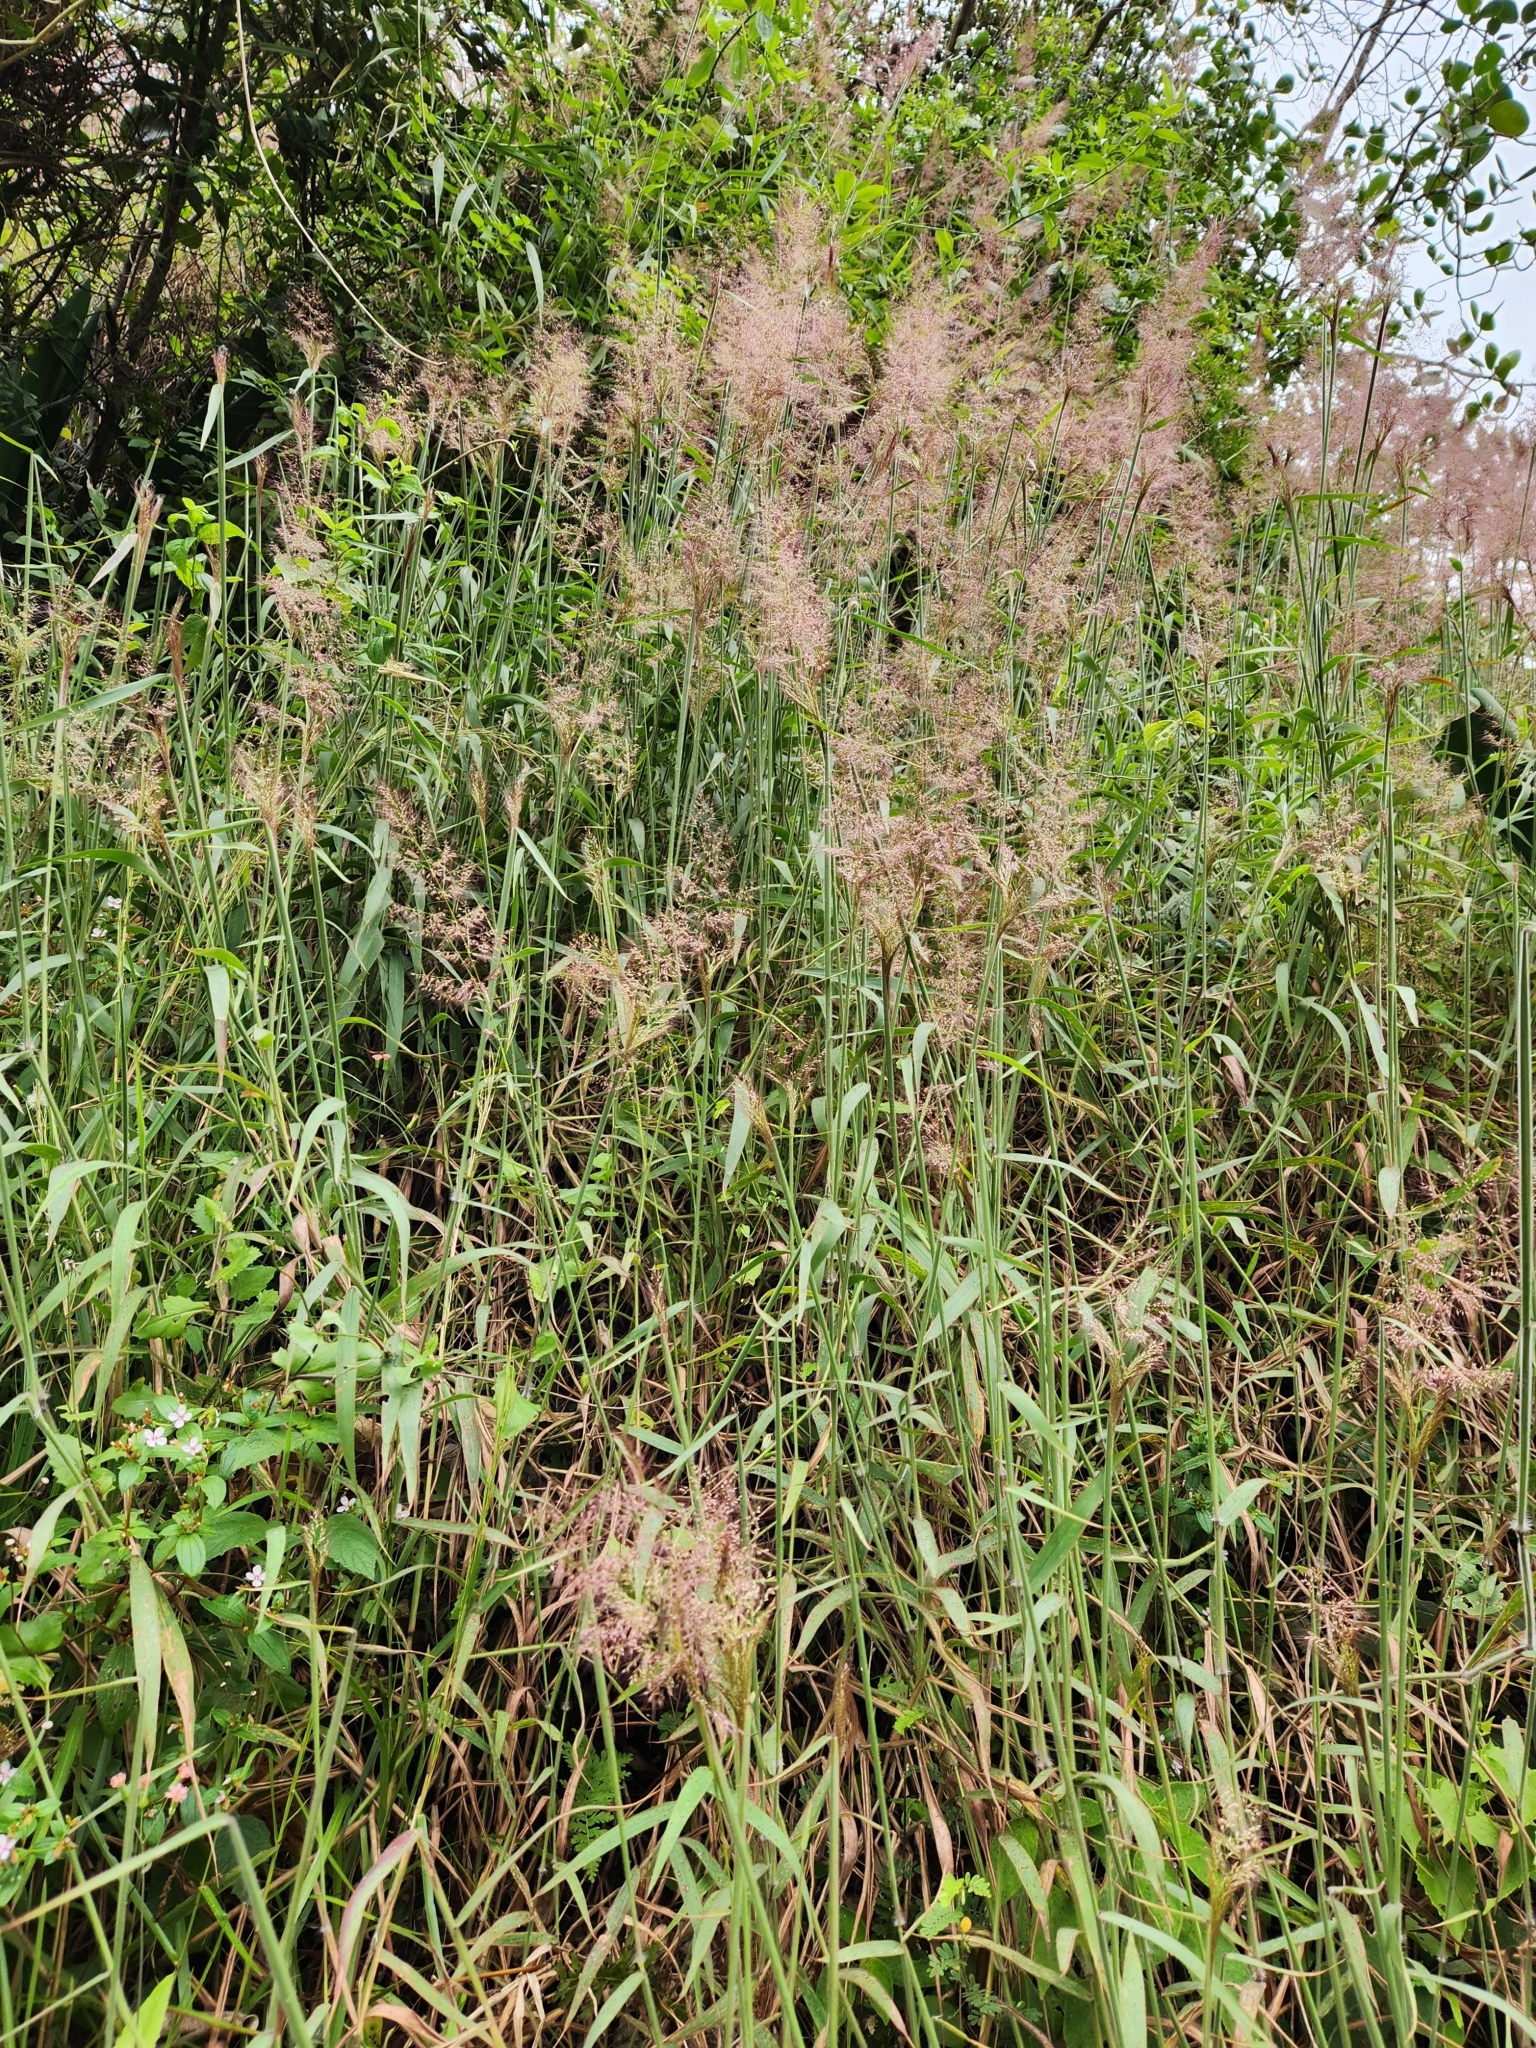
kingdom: Plantae
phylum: Tracheophyta
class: Liliopsida
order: Poales
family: Poaceae
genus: Melinis
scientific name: Melinis minutiflora
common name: Molassesgrass
